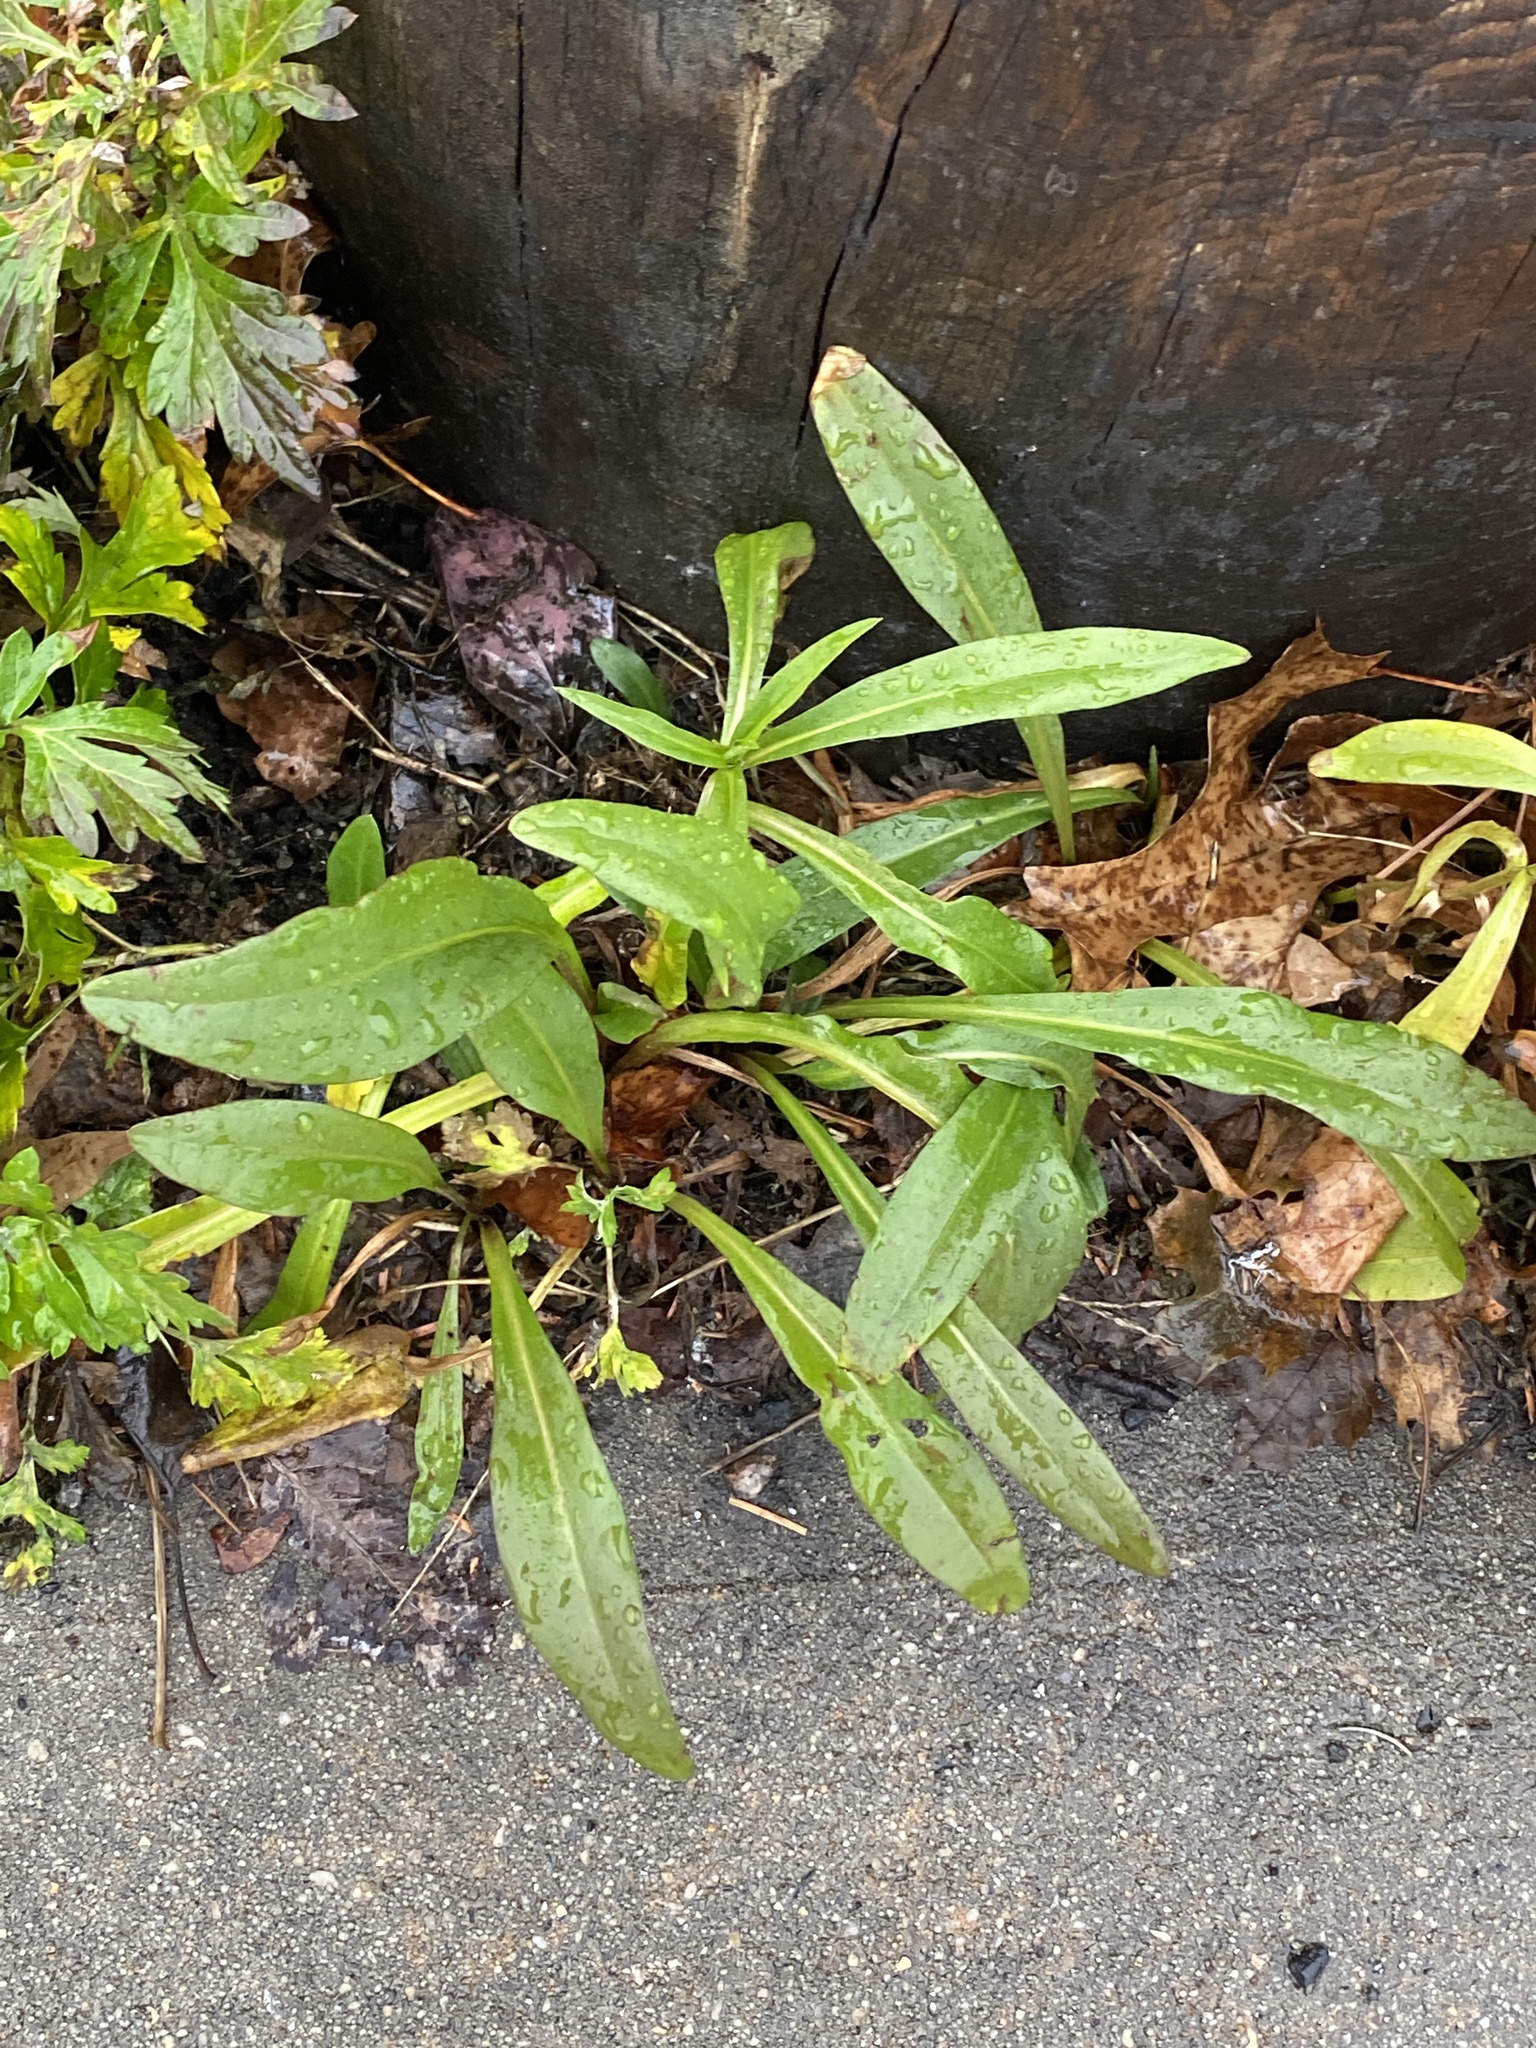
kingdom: Plantae
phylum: Tracheophyta
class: Magnoliopsida
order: Asterales
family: Asteraceae
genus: Solidago
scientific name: Solidago sempervirens
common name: Salt-marsh goldenrod
